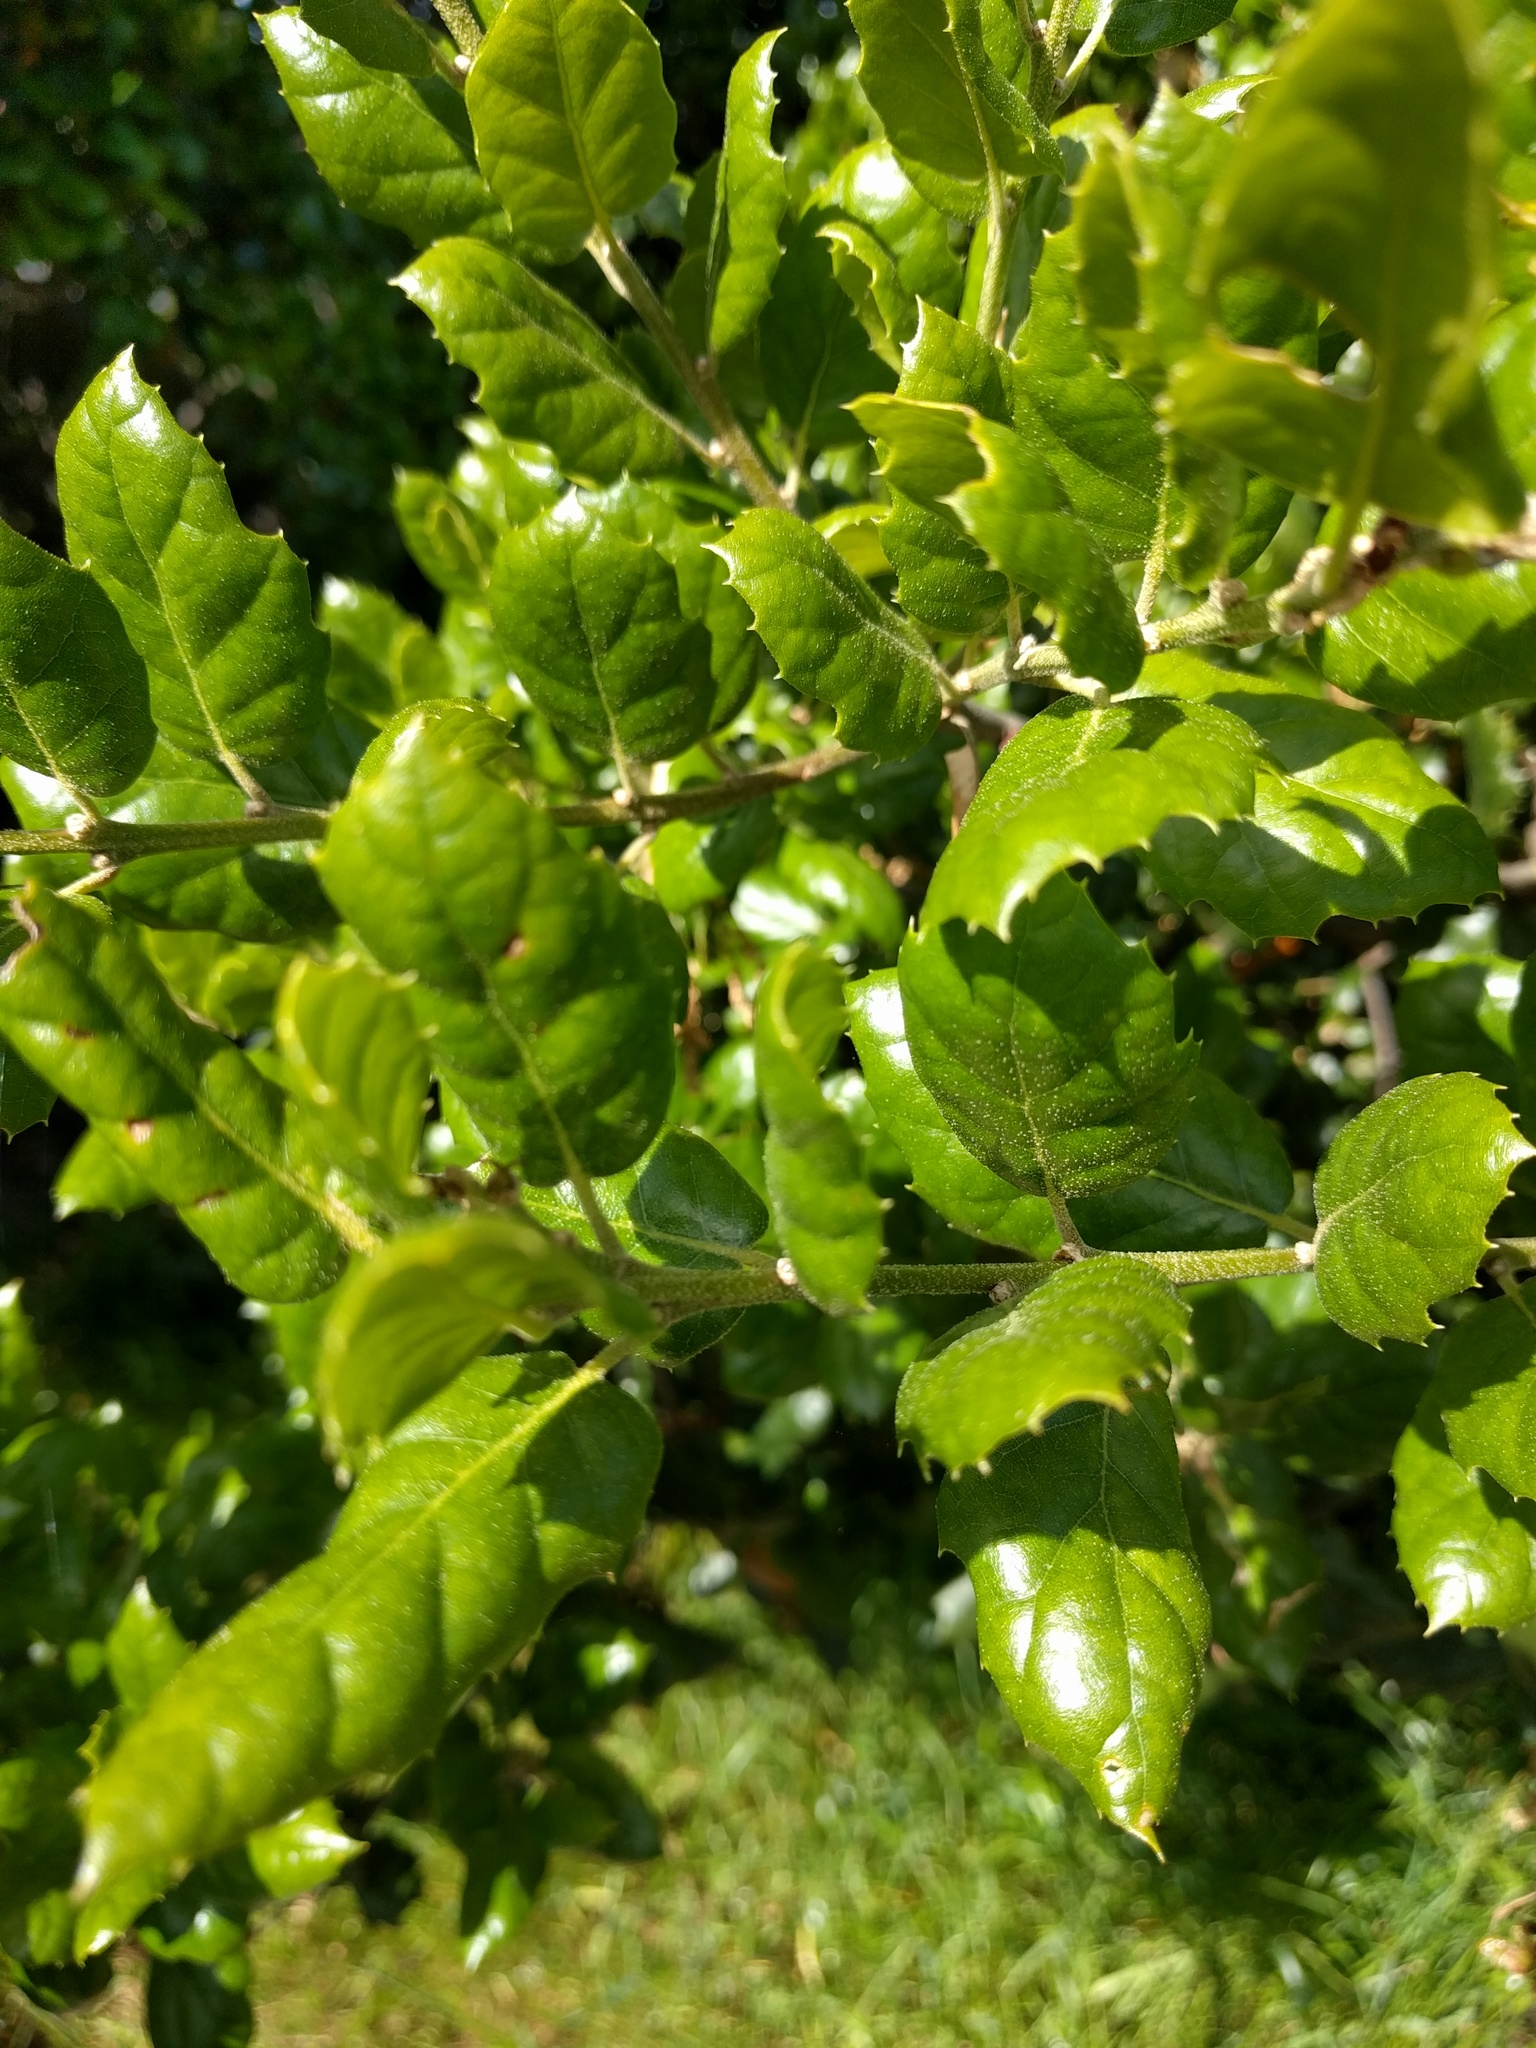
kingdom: Plantae
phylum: Tracheophyta
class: Magnoliopsida
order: Fagales
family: Fagaceae
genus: Quercus
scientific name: Quercus agrifolia
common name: California live oak
